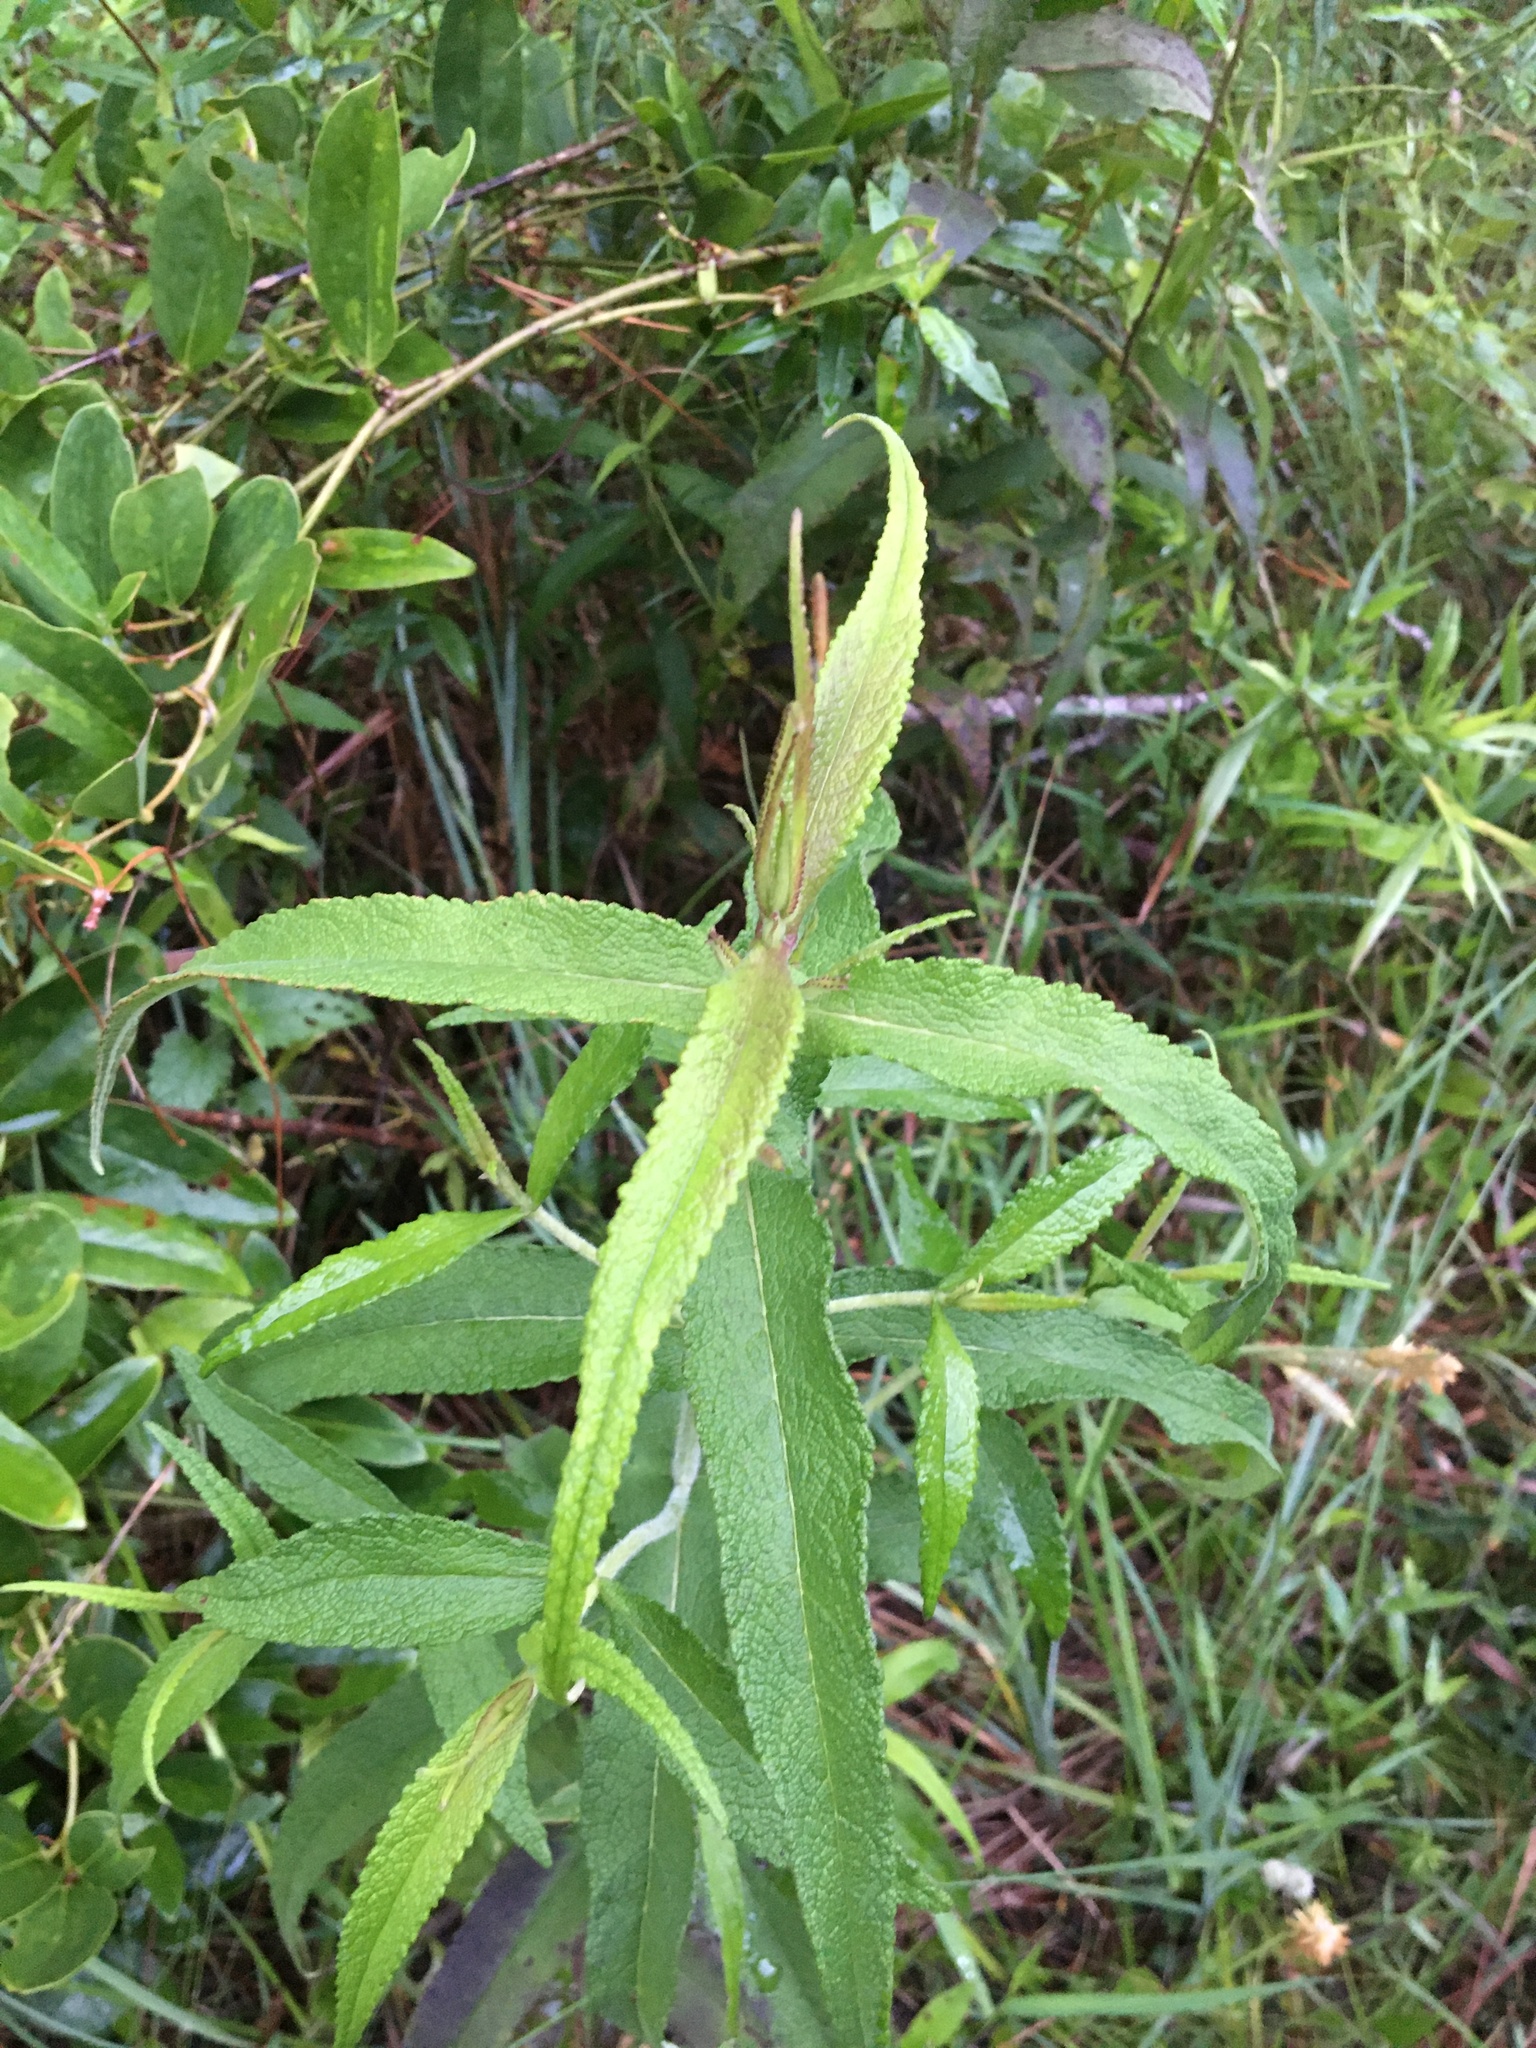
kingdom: Plantae
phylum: Tracheophyta
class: Magnoliopsida
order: Asterales
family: Asteraceae
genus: Eupatorium
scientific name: Eupatorium perfoliatum
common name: Boneset
